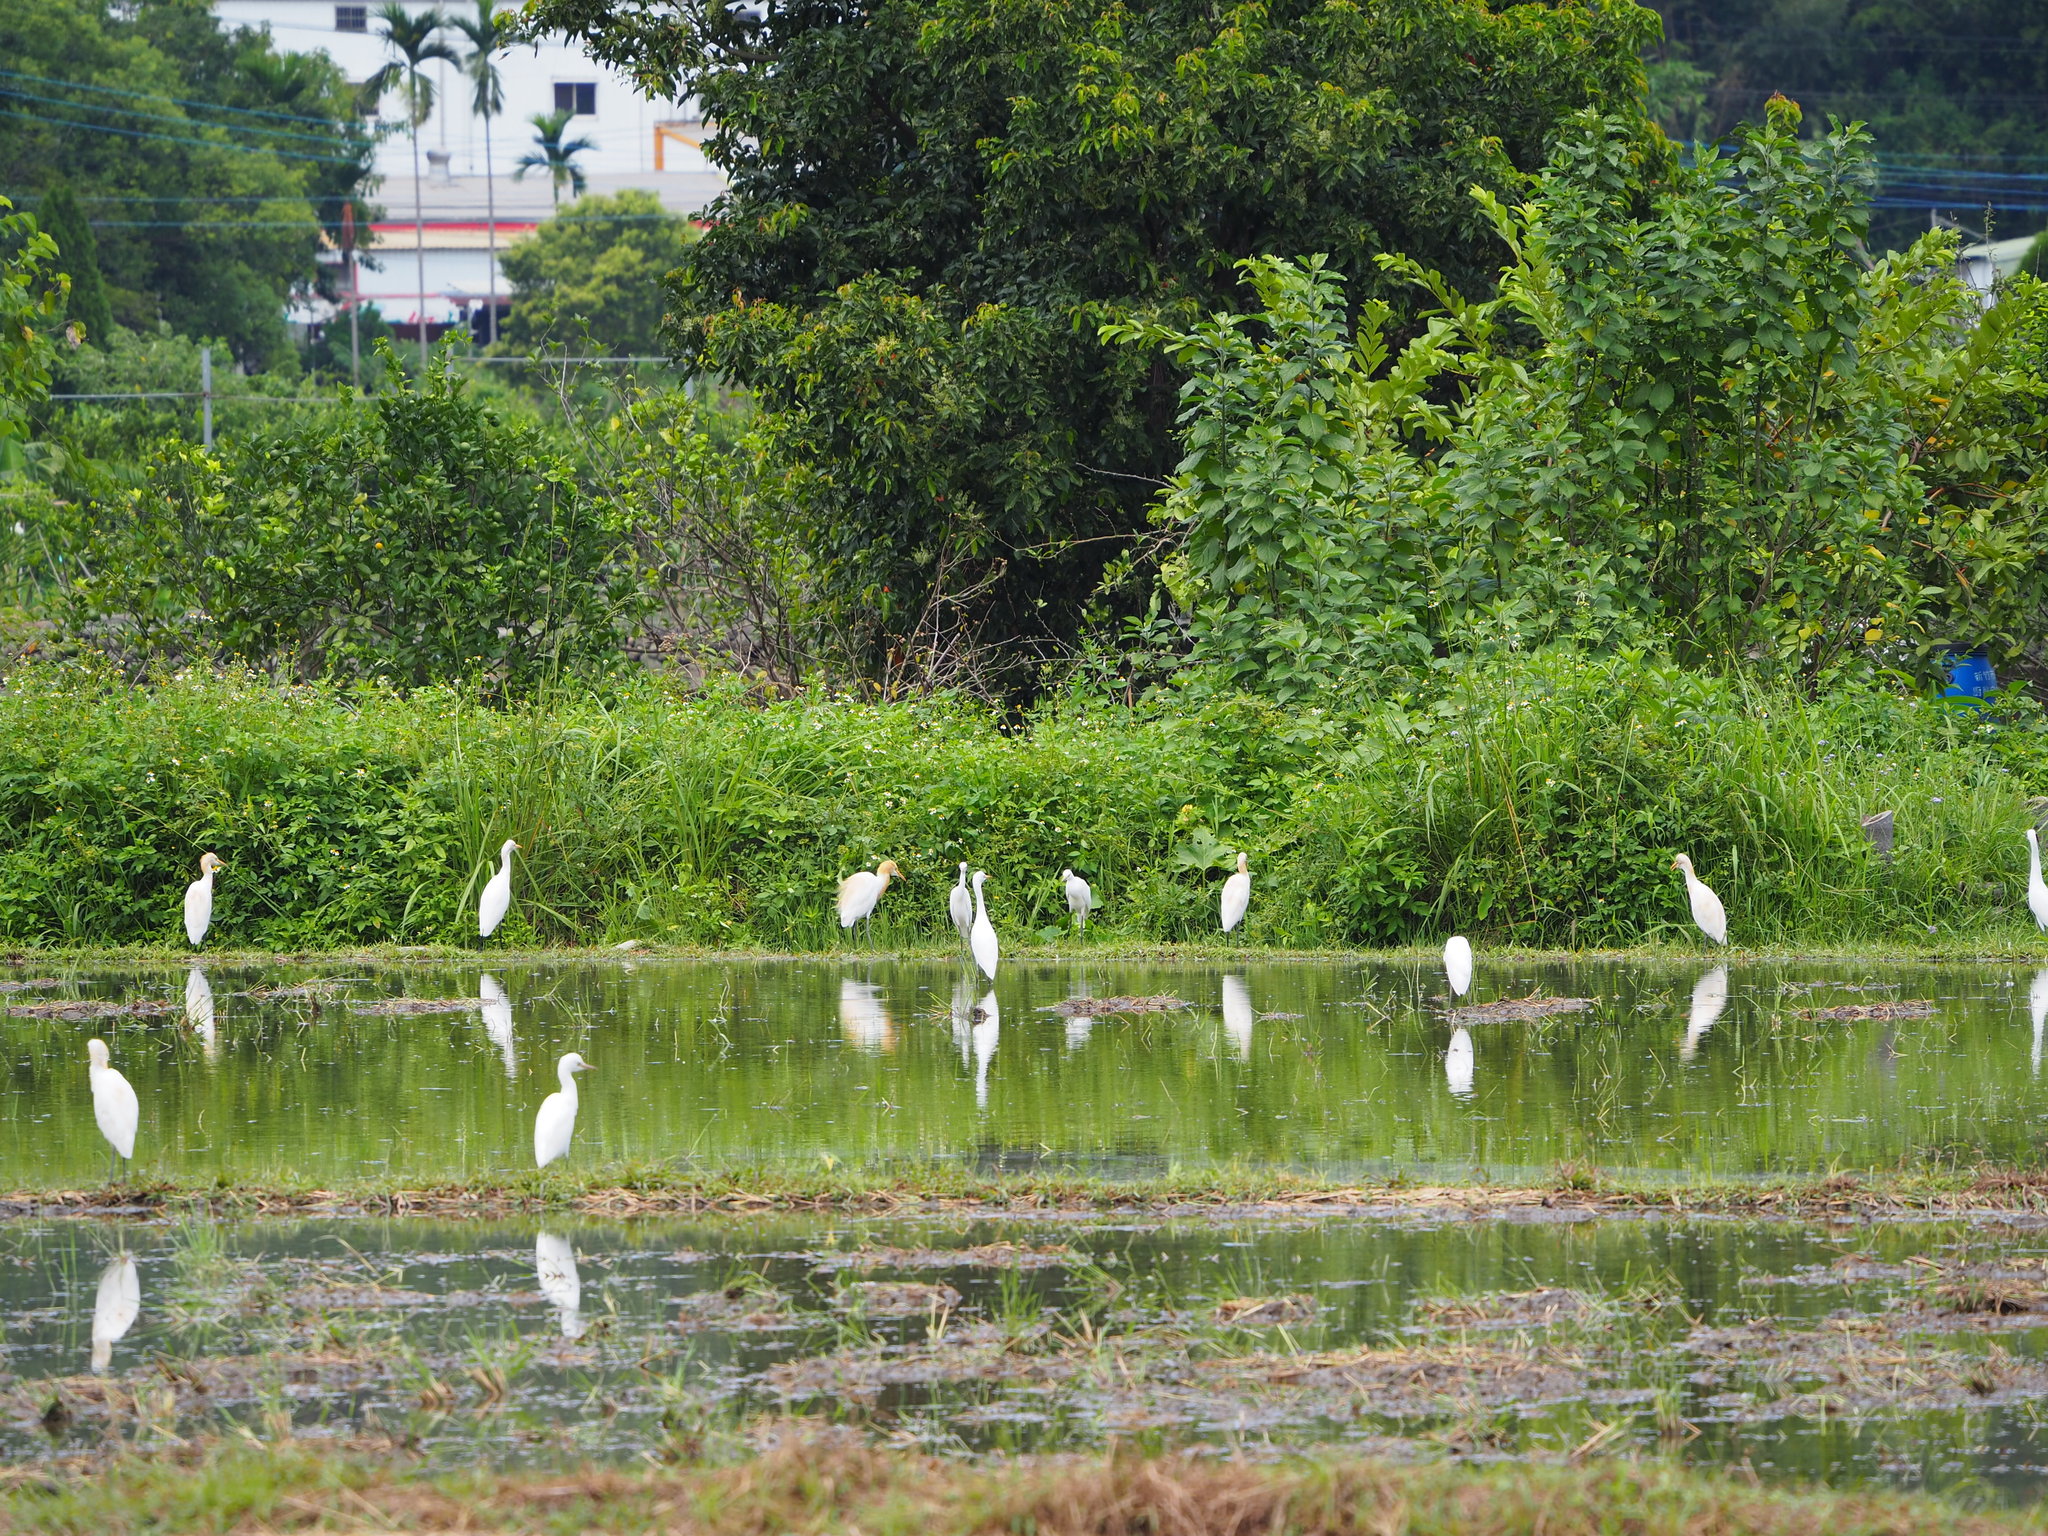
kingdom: Animalia
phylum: Chordata
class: Aves
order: Pelecaniformes
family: Ardeidae
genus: Bubulcus
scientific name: Bubulcus coromandus
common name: Eastern cattle egret
